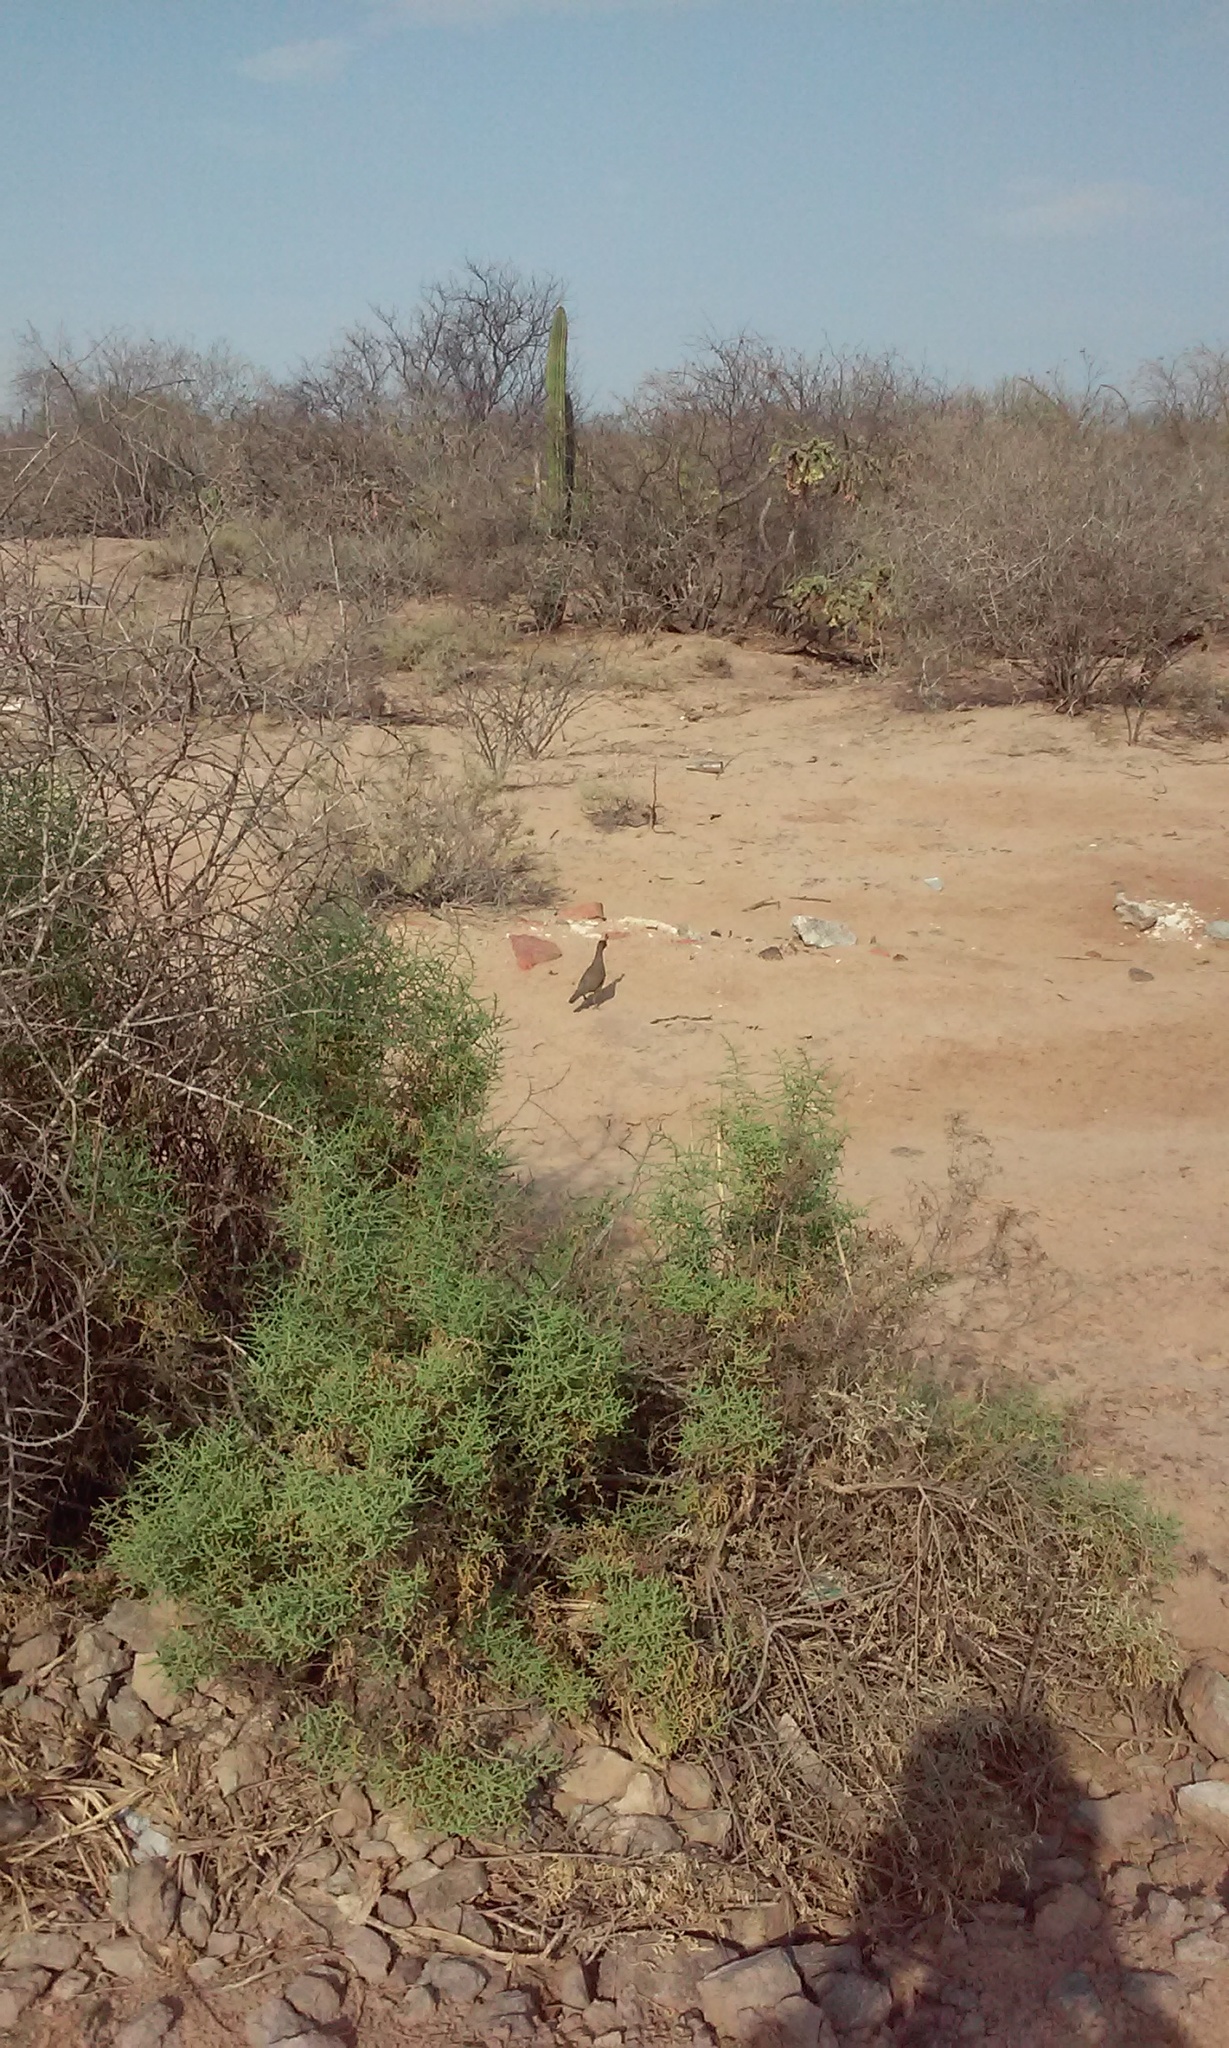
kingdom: Animalia
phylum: Chordata
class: Aves
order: Galliformes
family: Odontophoridae
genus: Callipepla
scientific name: Callipepla gambelii
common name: Gambel's quail
